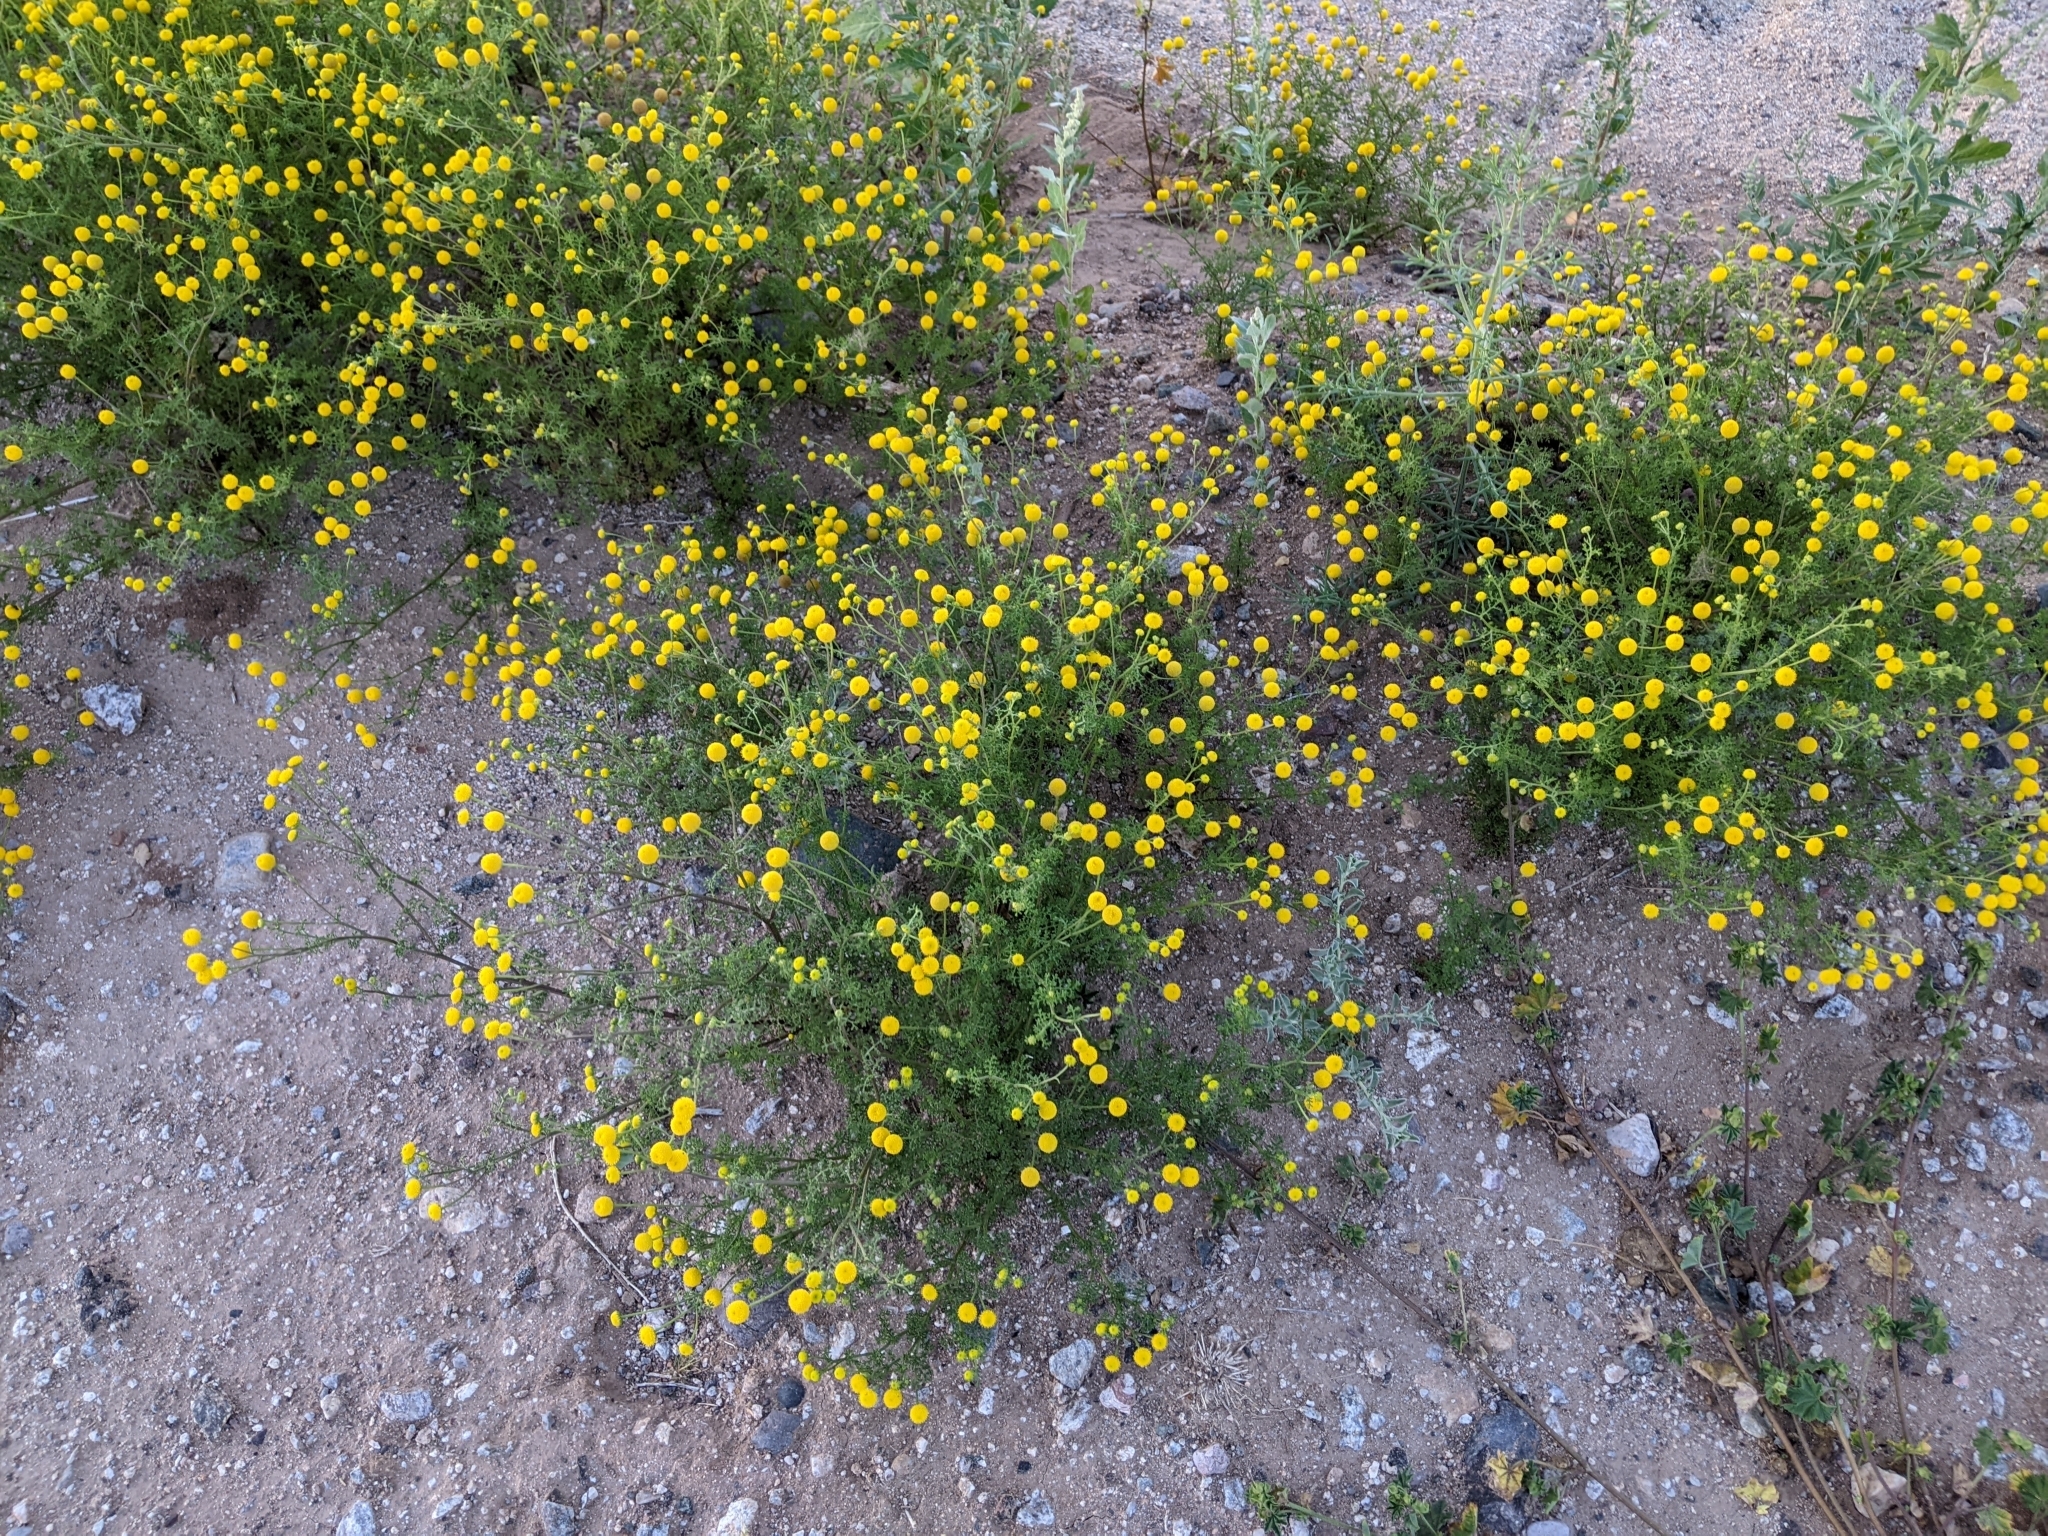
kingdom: Plantae
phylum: Tracheophyta
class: Magnoliopsida
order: Asterales
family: Asteraceae
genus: Oncosiphon
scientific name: Oncosiphon pilulifer
